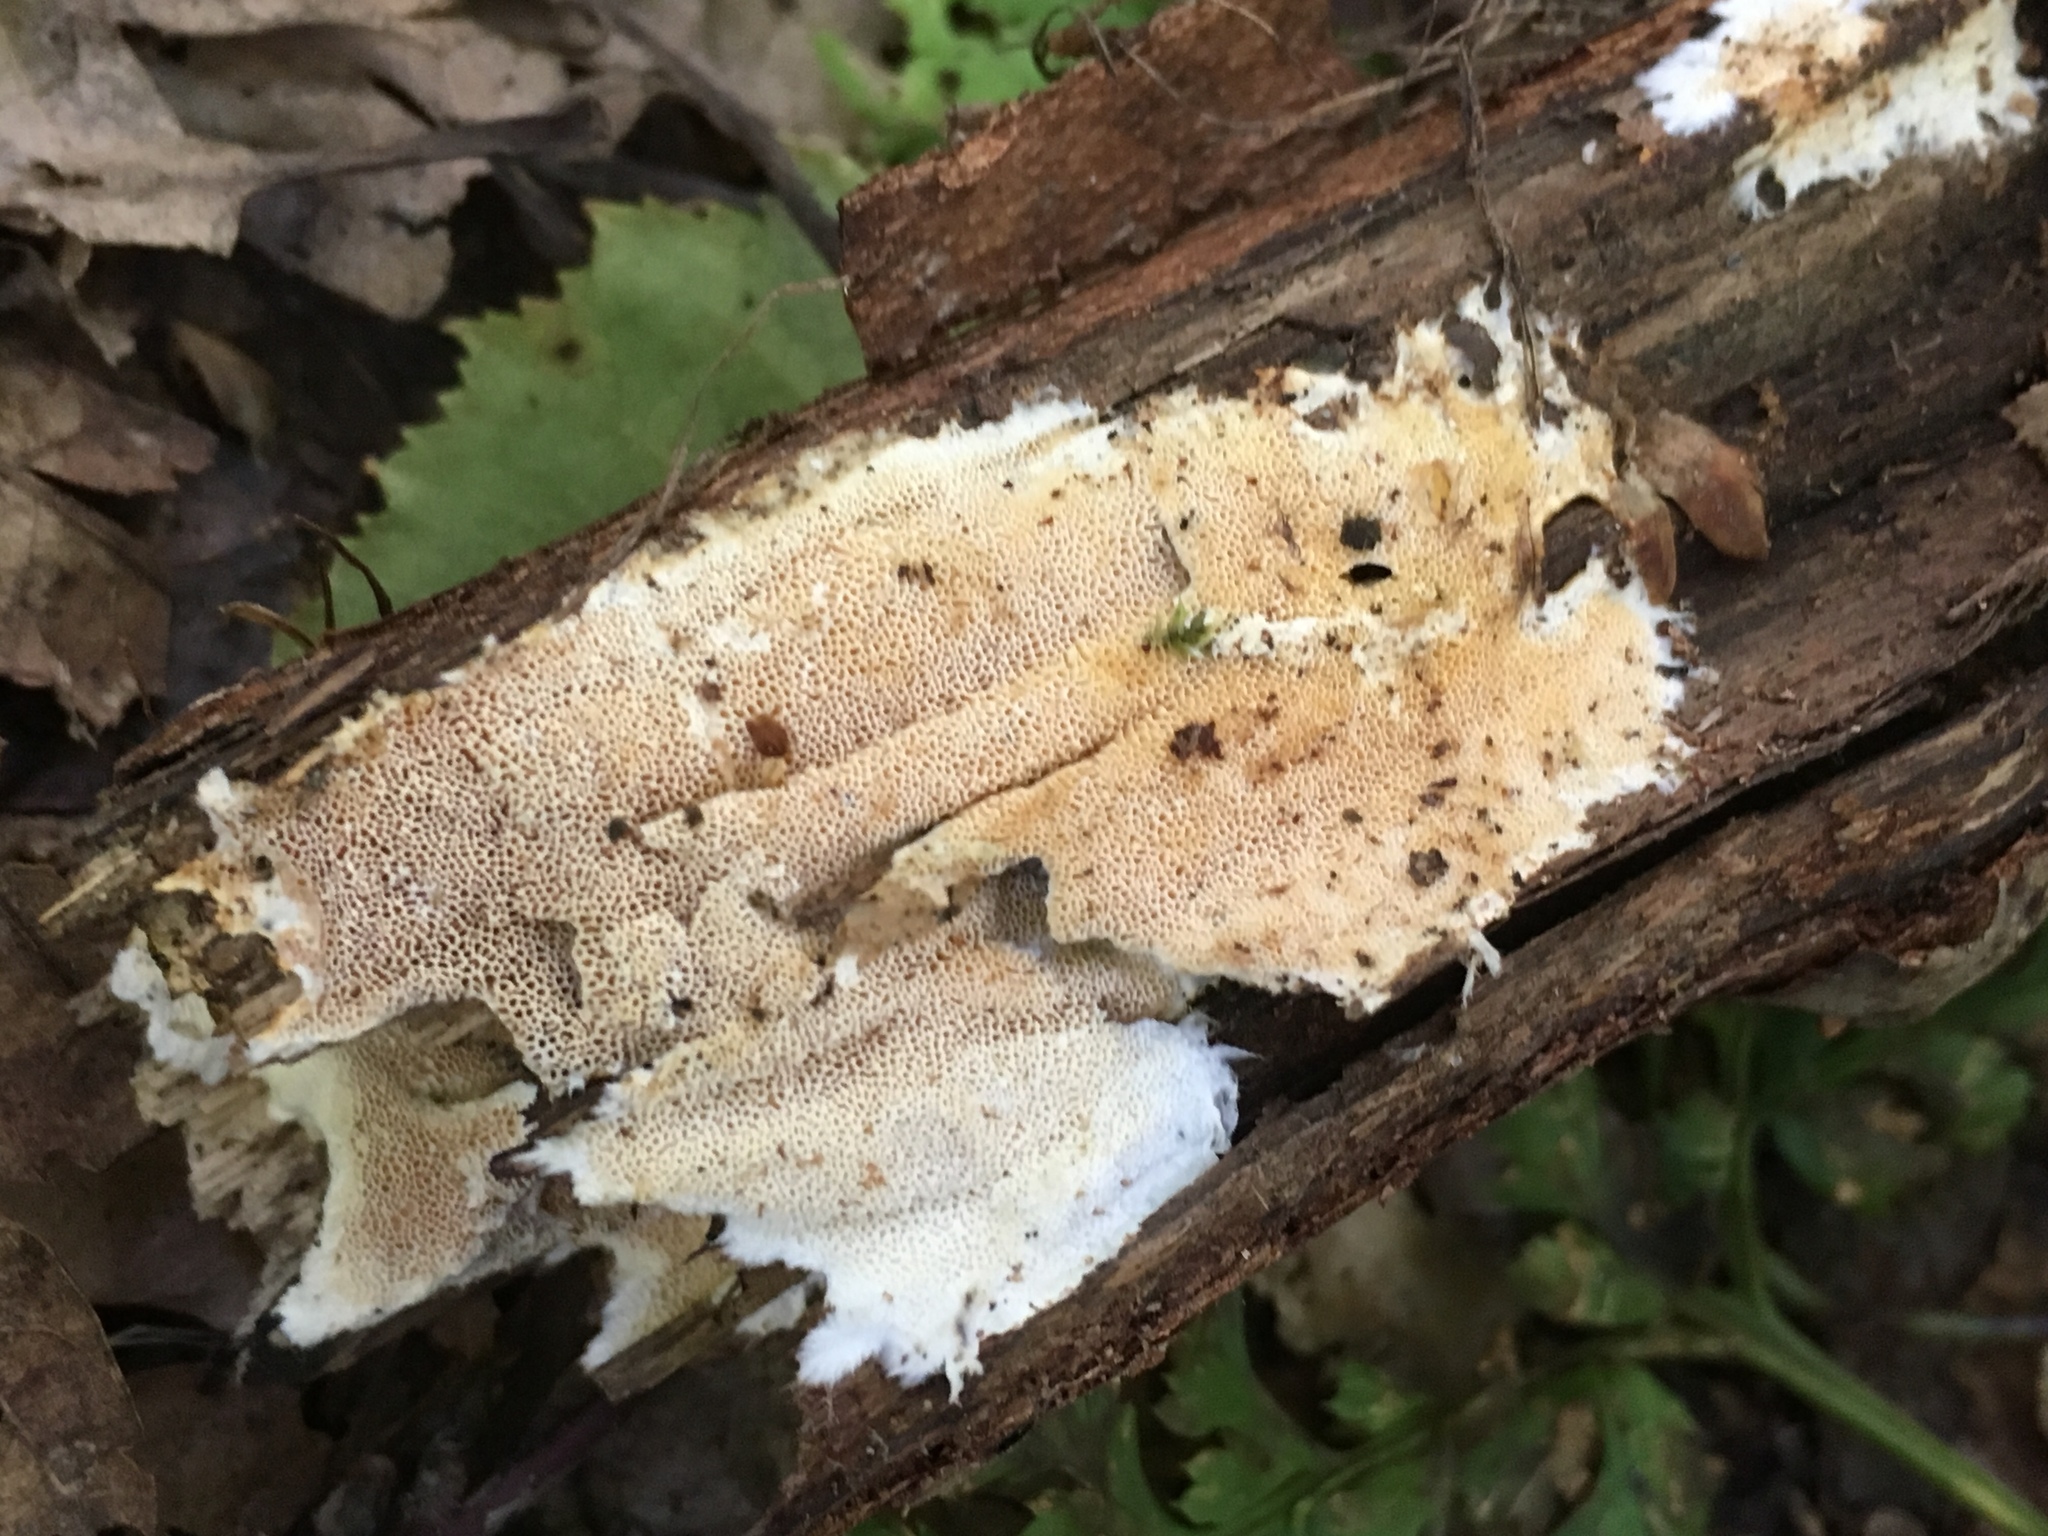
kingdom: Fungi
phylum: Basidiomycota
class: Agaricomycetes
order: Polyporales
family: Steccherinaceae
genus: Junghuhnia
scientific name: Junghuhnia nitida
